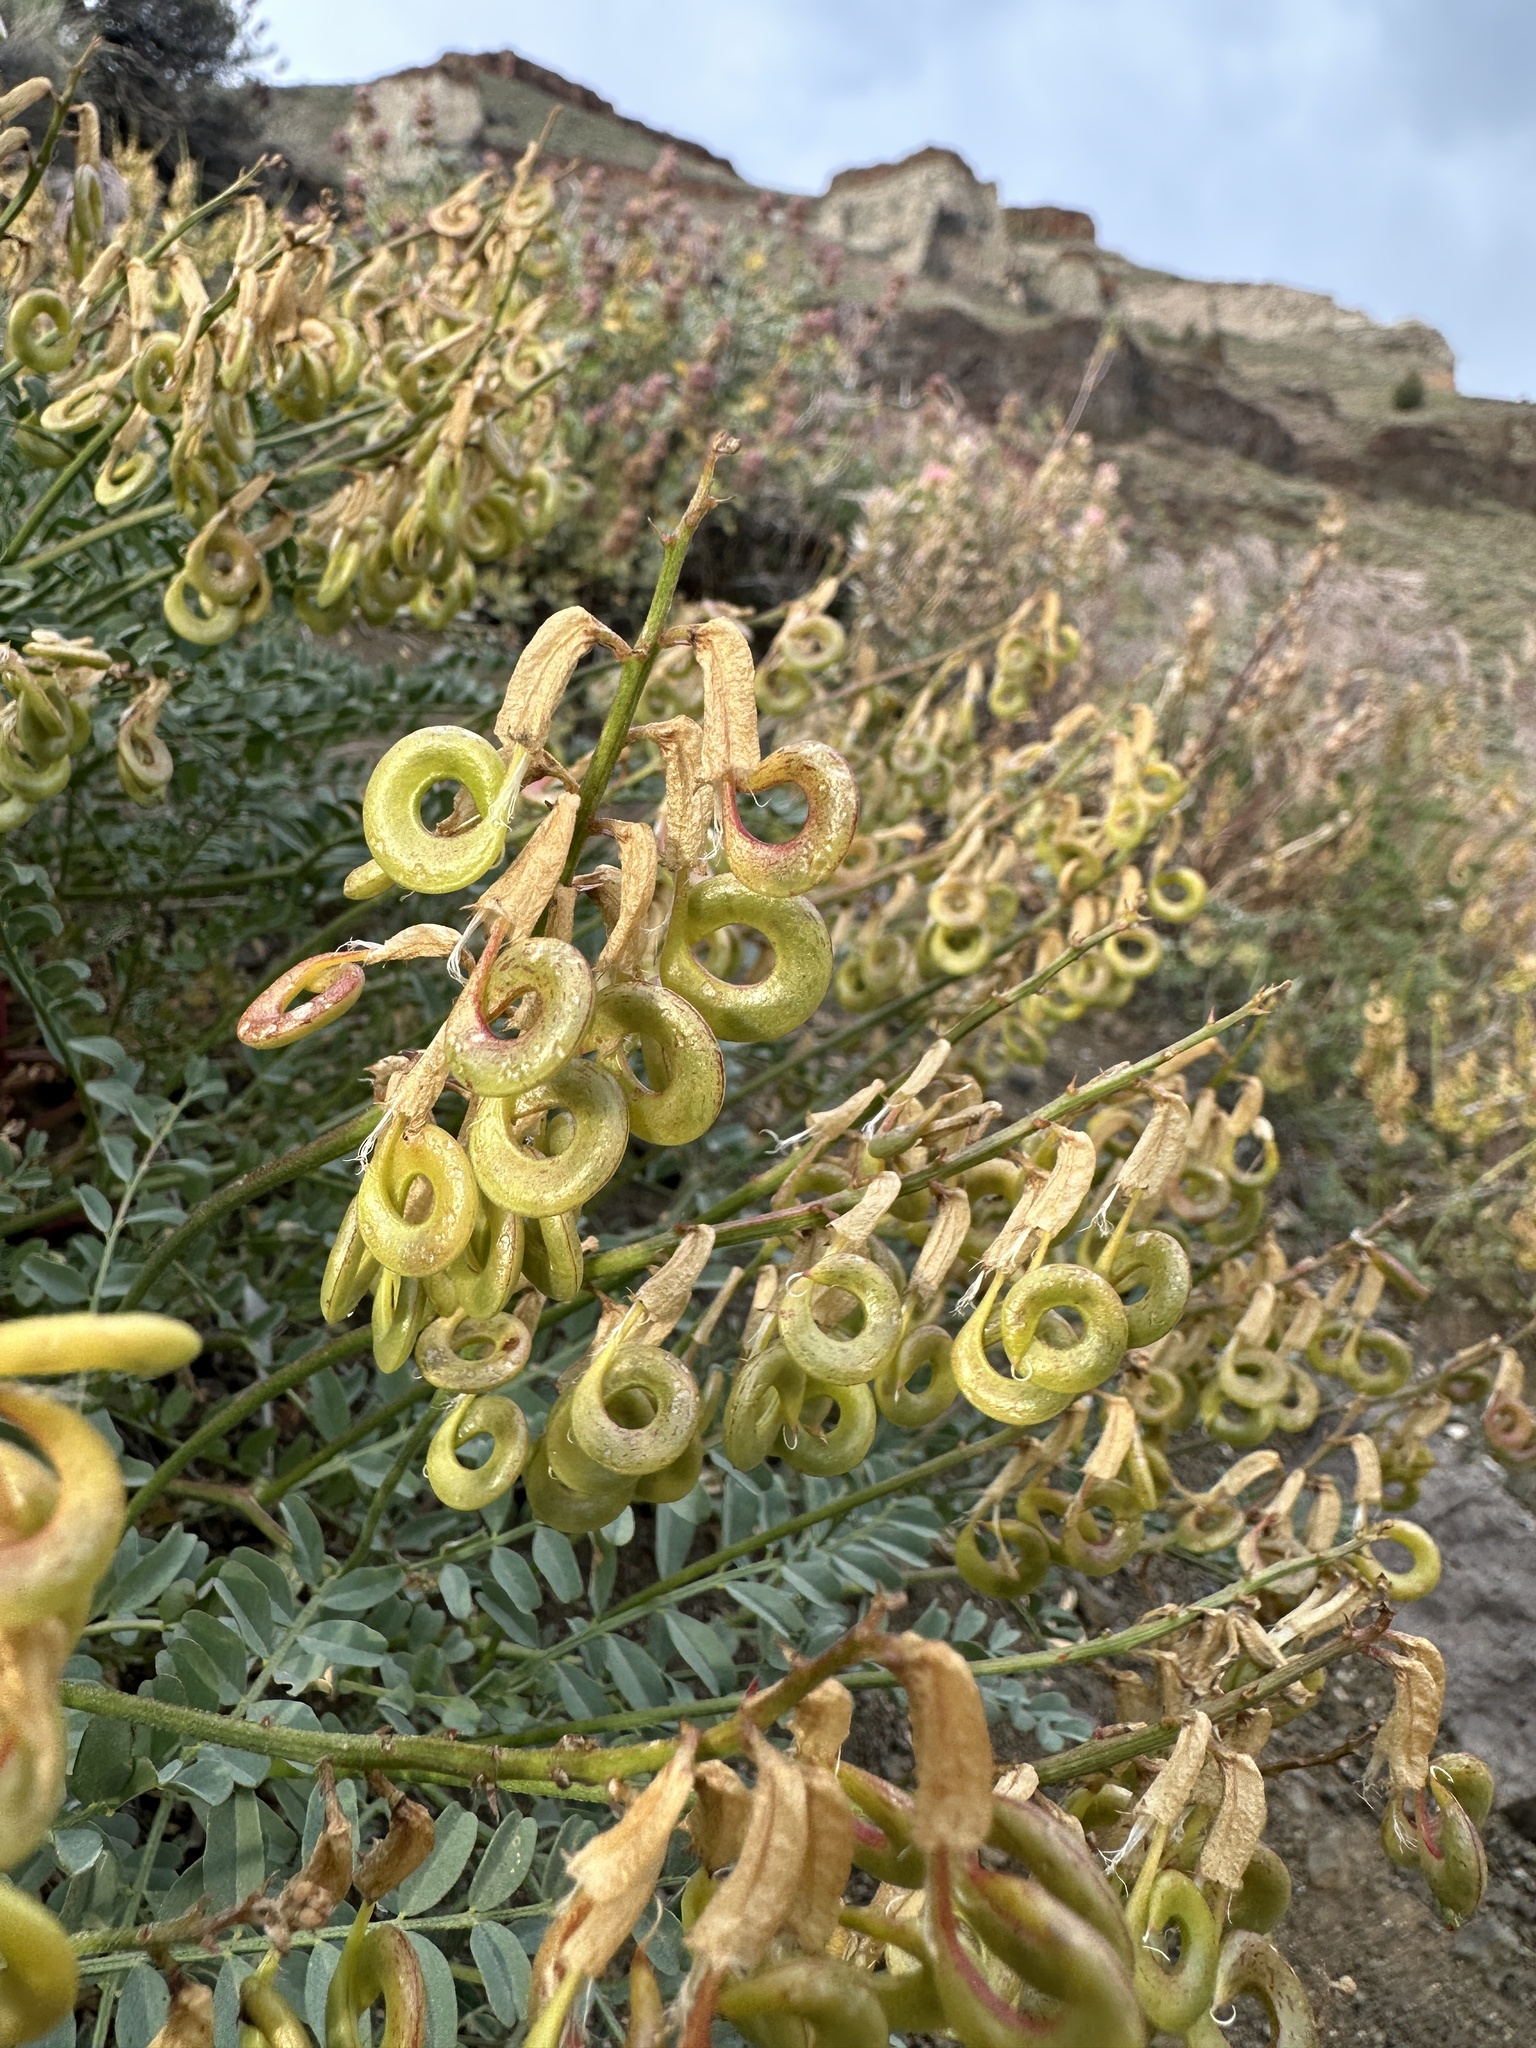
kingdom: Plantae
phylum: Tracheophyta
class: Magnoliopsida
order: Fabales
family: Fabaceae
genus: Astragalus
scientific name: Astragalus curvicarpus
